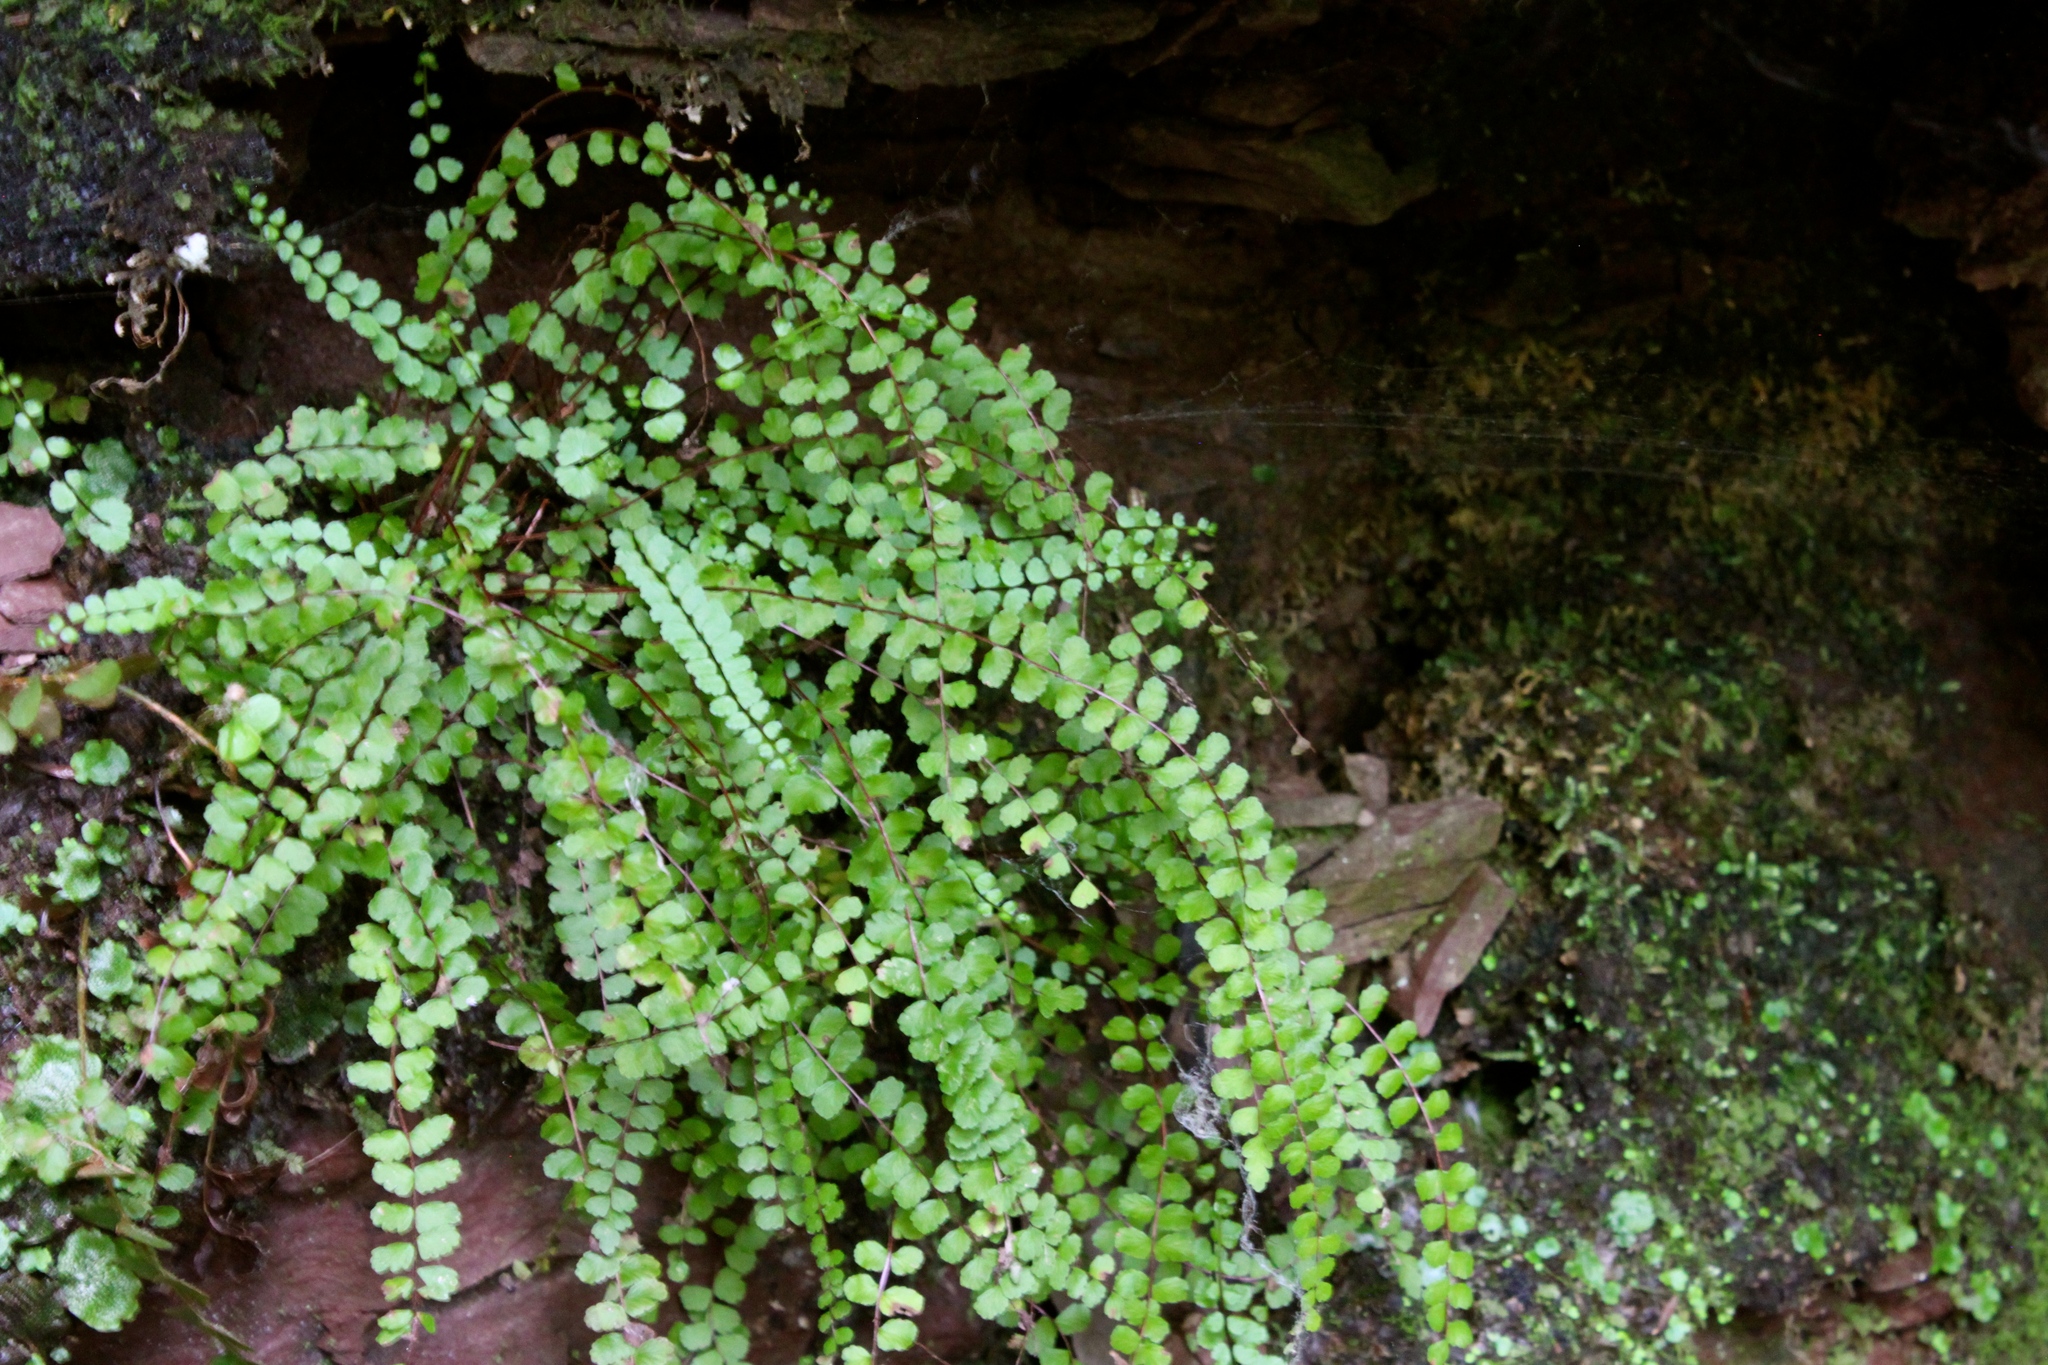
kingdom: Plantae
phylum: Tracheophyta
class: Polypodiopsida
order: Polypodiales
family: Aspleniaceae
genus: Asplenium
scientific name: Asplenium trichomanes
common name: Maidenhair spleenwort
